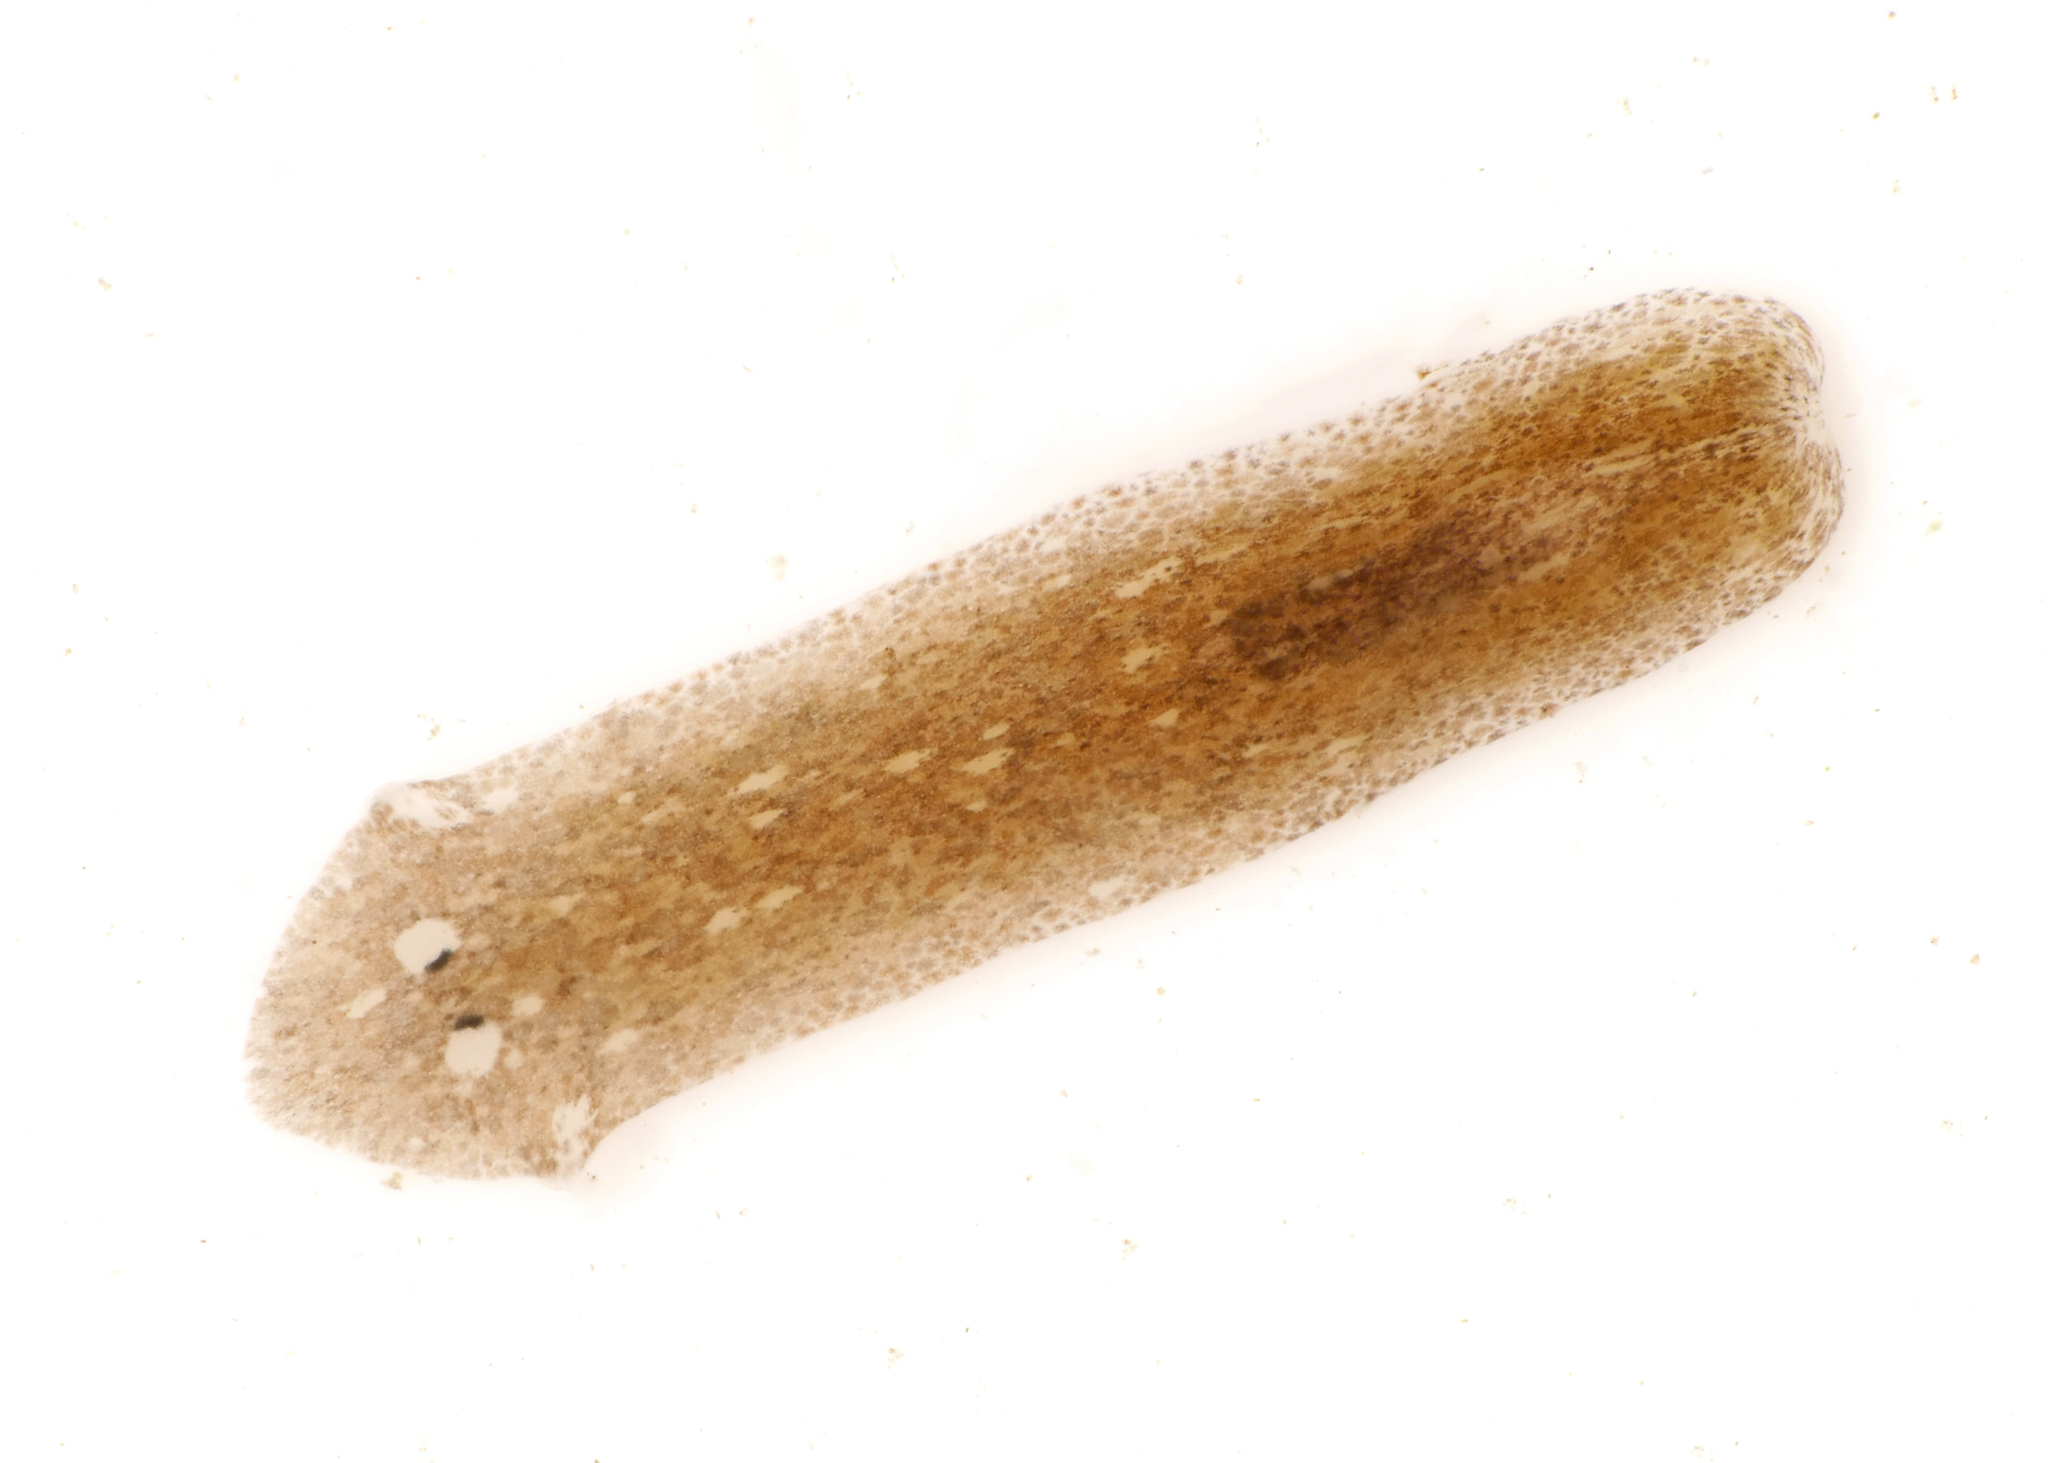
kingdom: Animalia
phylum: Platyhelminthes
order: Tricladida
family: Dugesiidae
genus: Girardia
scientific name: Girardia tigrina
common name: Brown planaria
